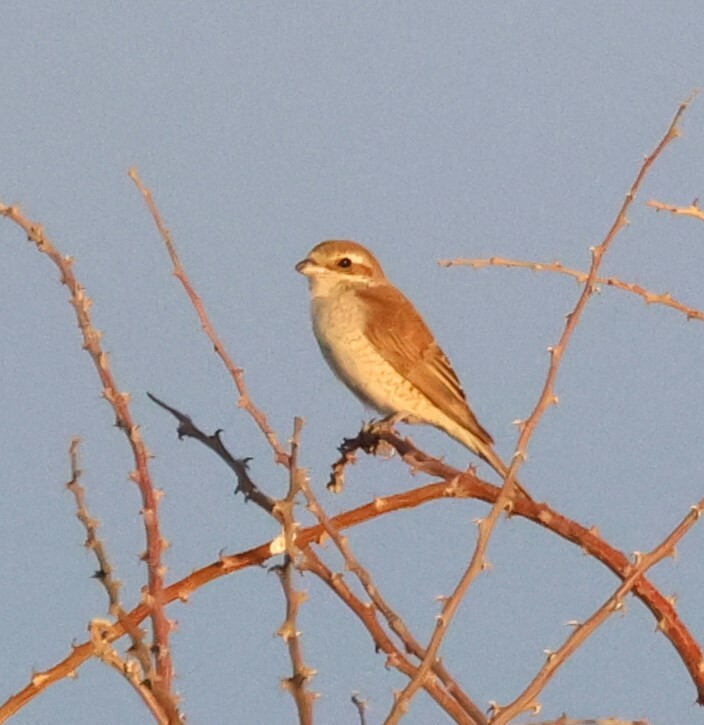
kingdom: Animalia
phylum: Chordata
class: Aves
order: Passeriformes
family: Laniidae
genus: Lanius
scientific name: Lanius collurio
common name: Red-backed shrike
